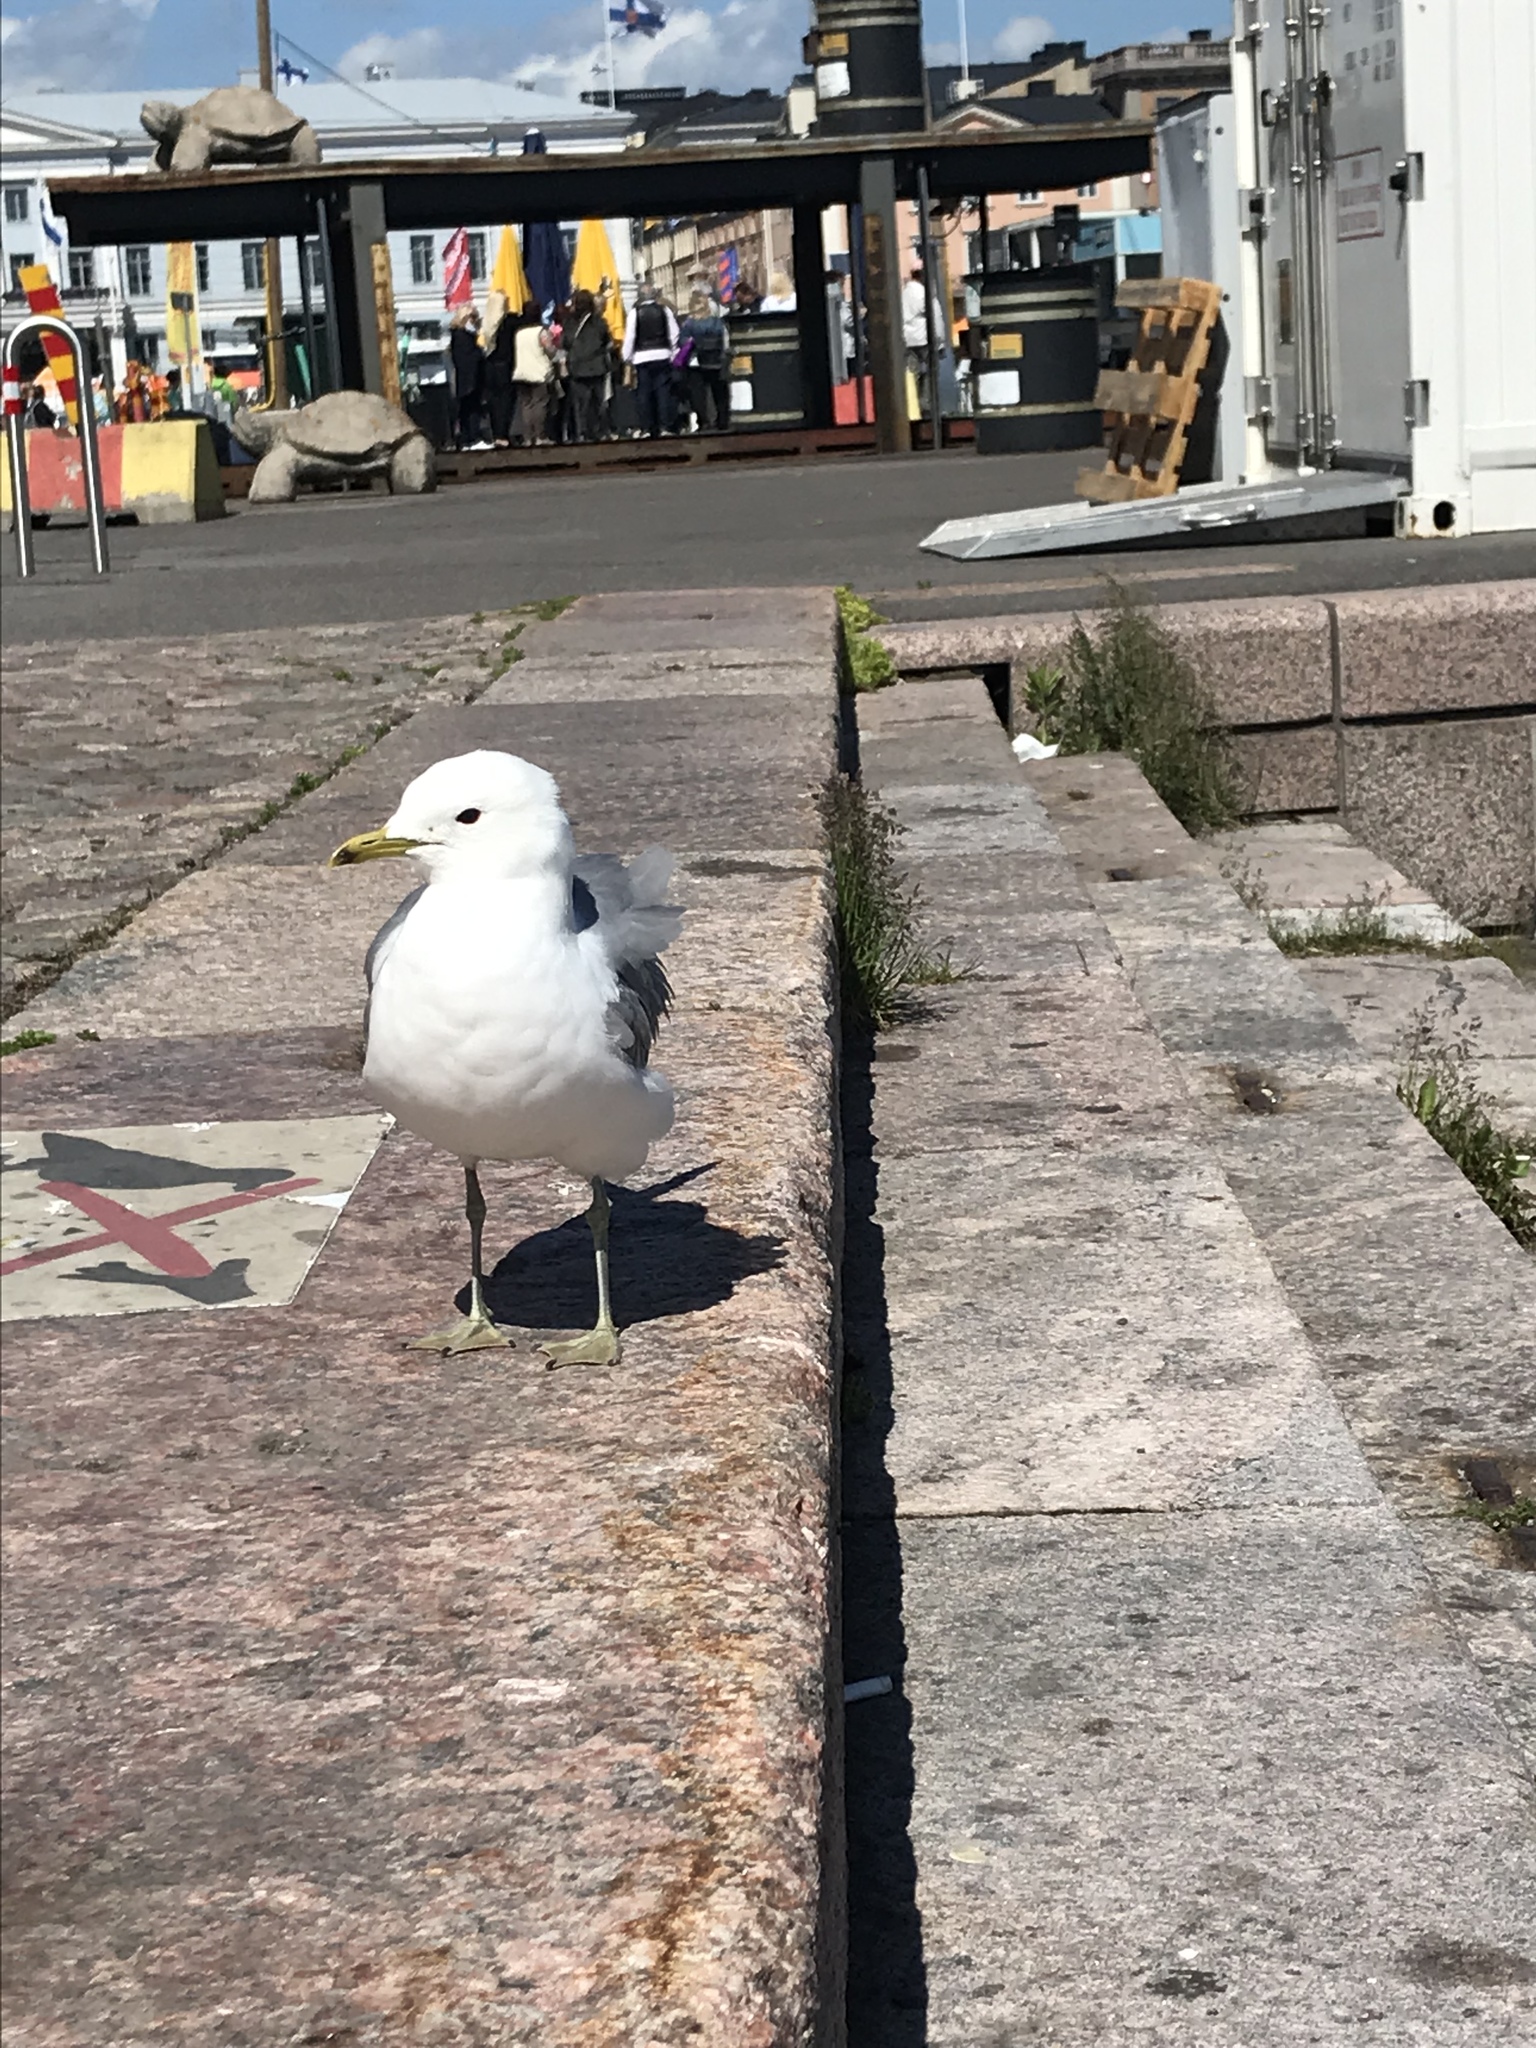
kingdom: Animalia
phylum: Chordata
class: Aves
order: Charadriiformes
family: Laridae
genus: Larus
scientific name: Larus canus
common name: Mew gull
